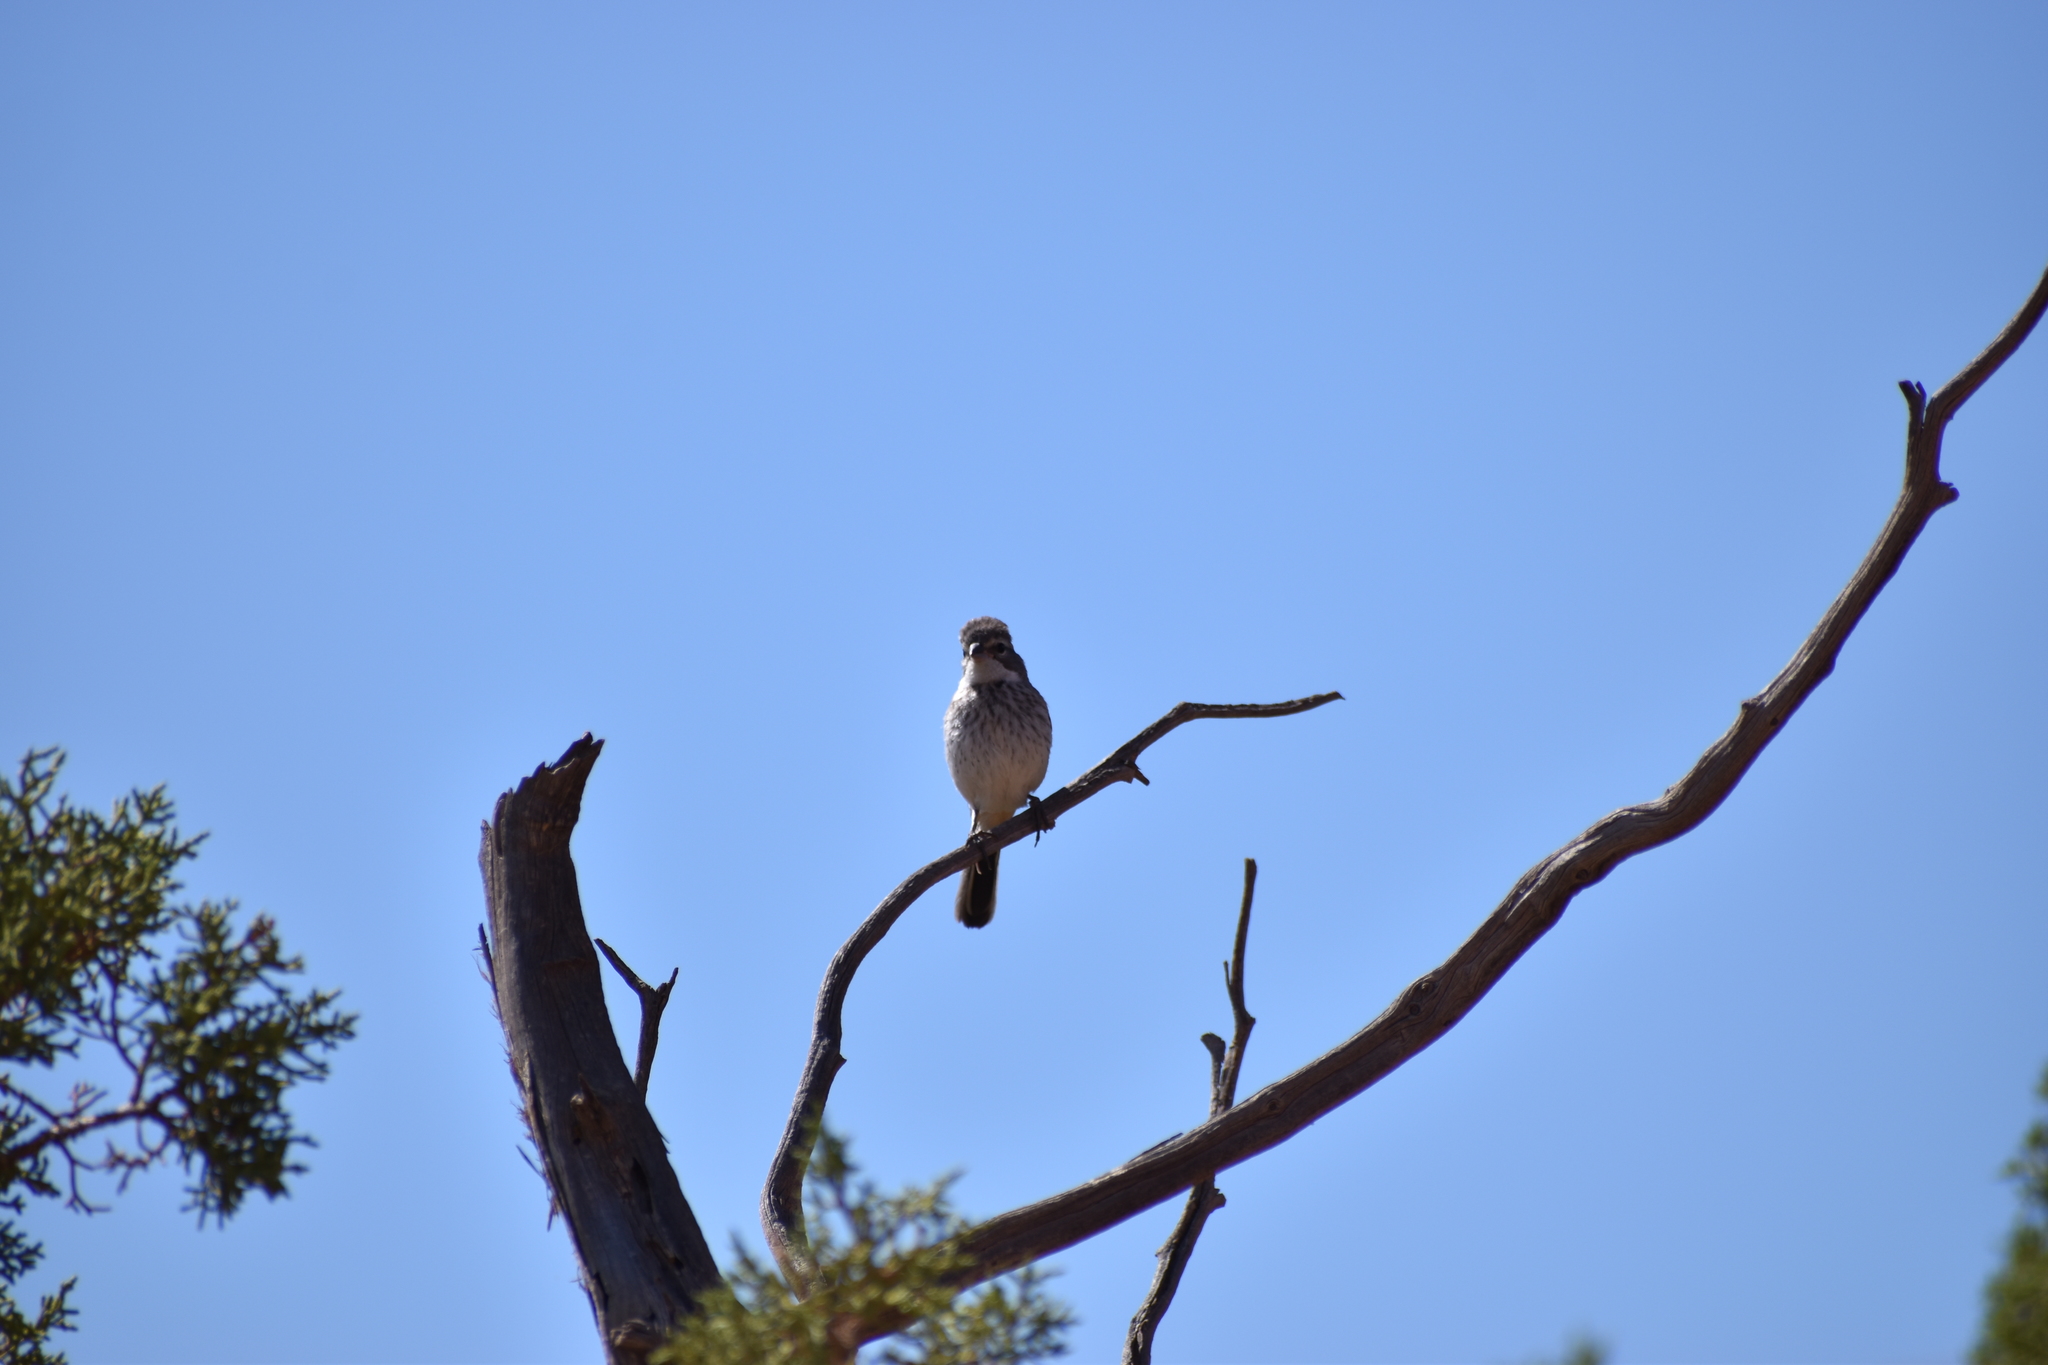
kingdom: Animalia
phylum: Chordata
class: Aves
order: Passeriformes
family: Passerellidae
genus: Amphispiza
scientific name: Amphispiza bilineata
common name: Black-throated sparrow
